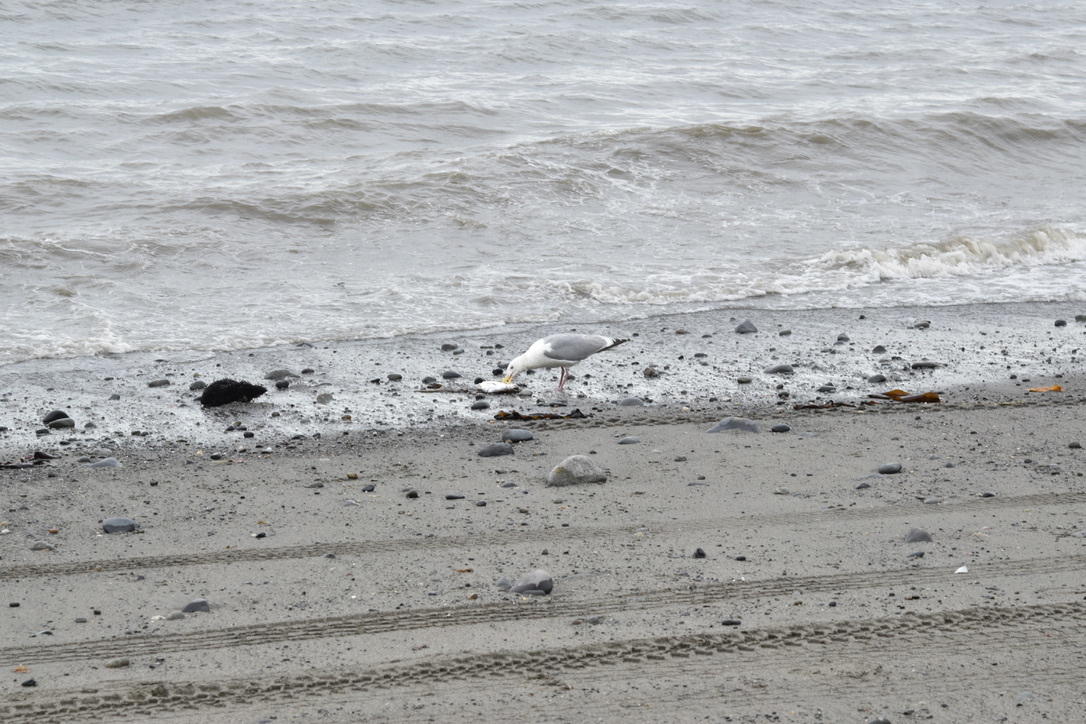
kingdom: Animalia
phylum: Chordata
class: Aves
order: Charadriiformes
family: Laridae
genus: Larus
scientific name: Larus
